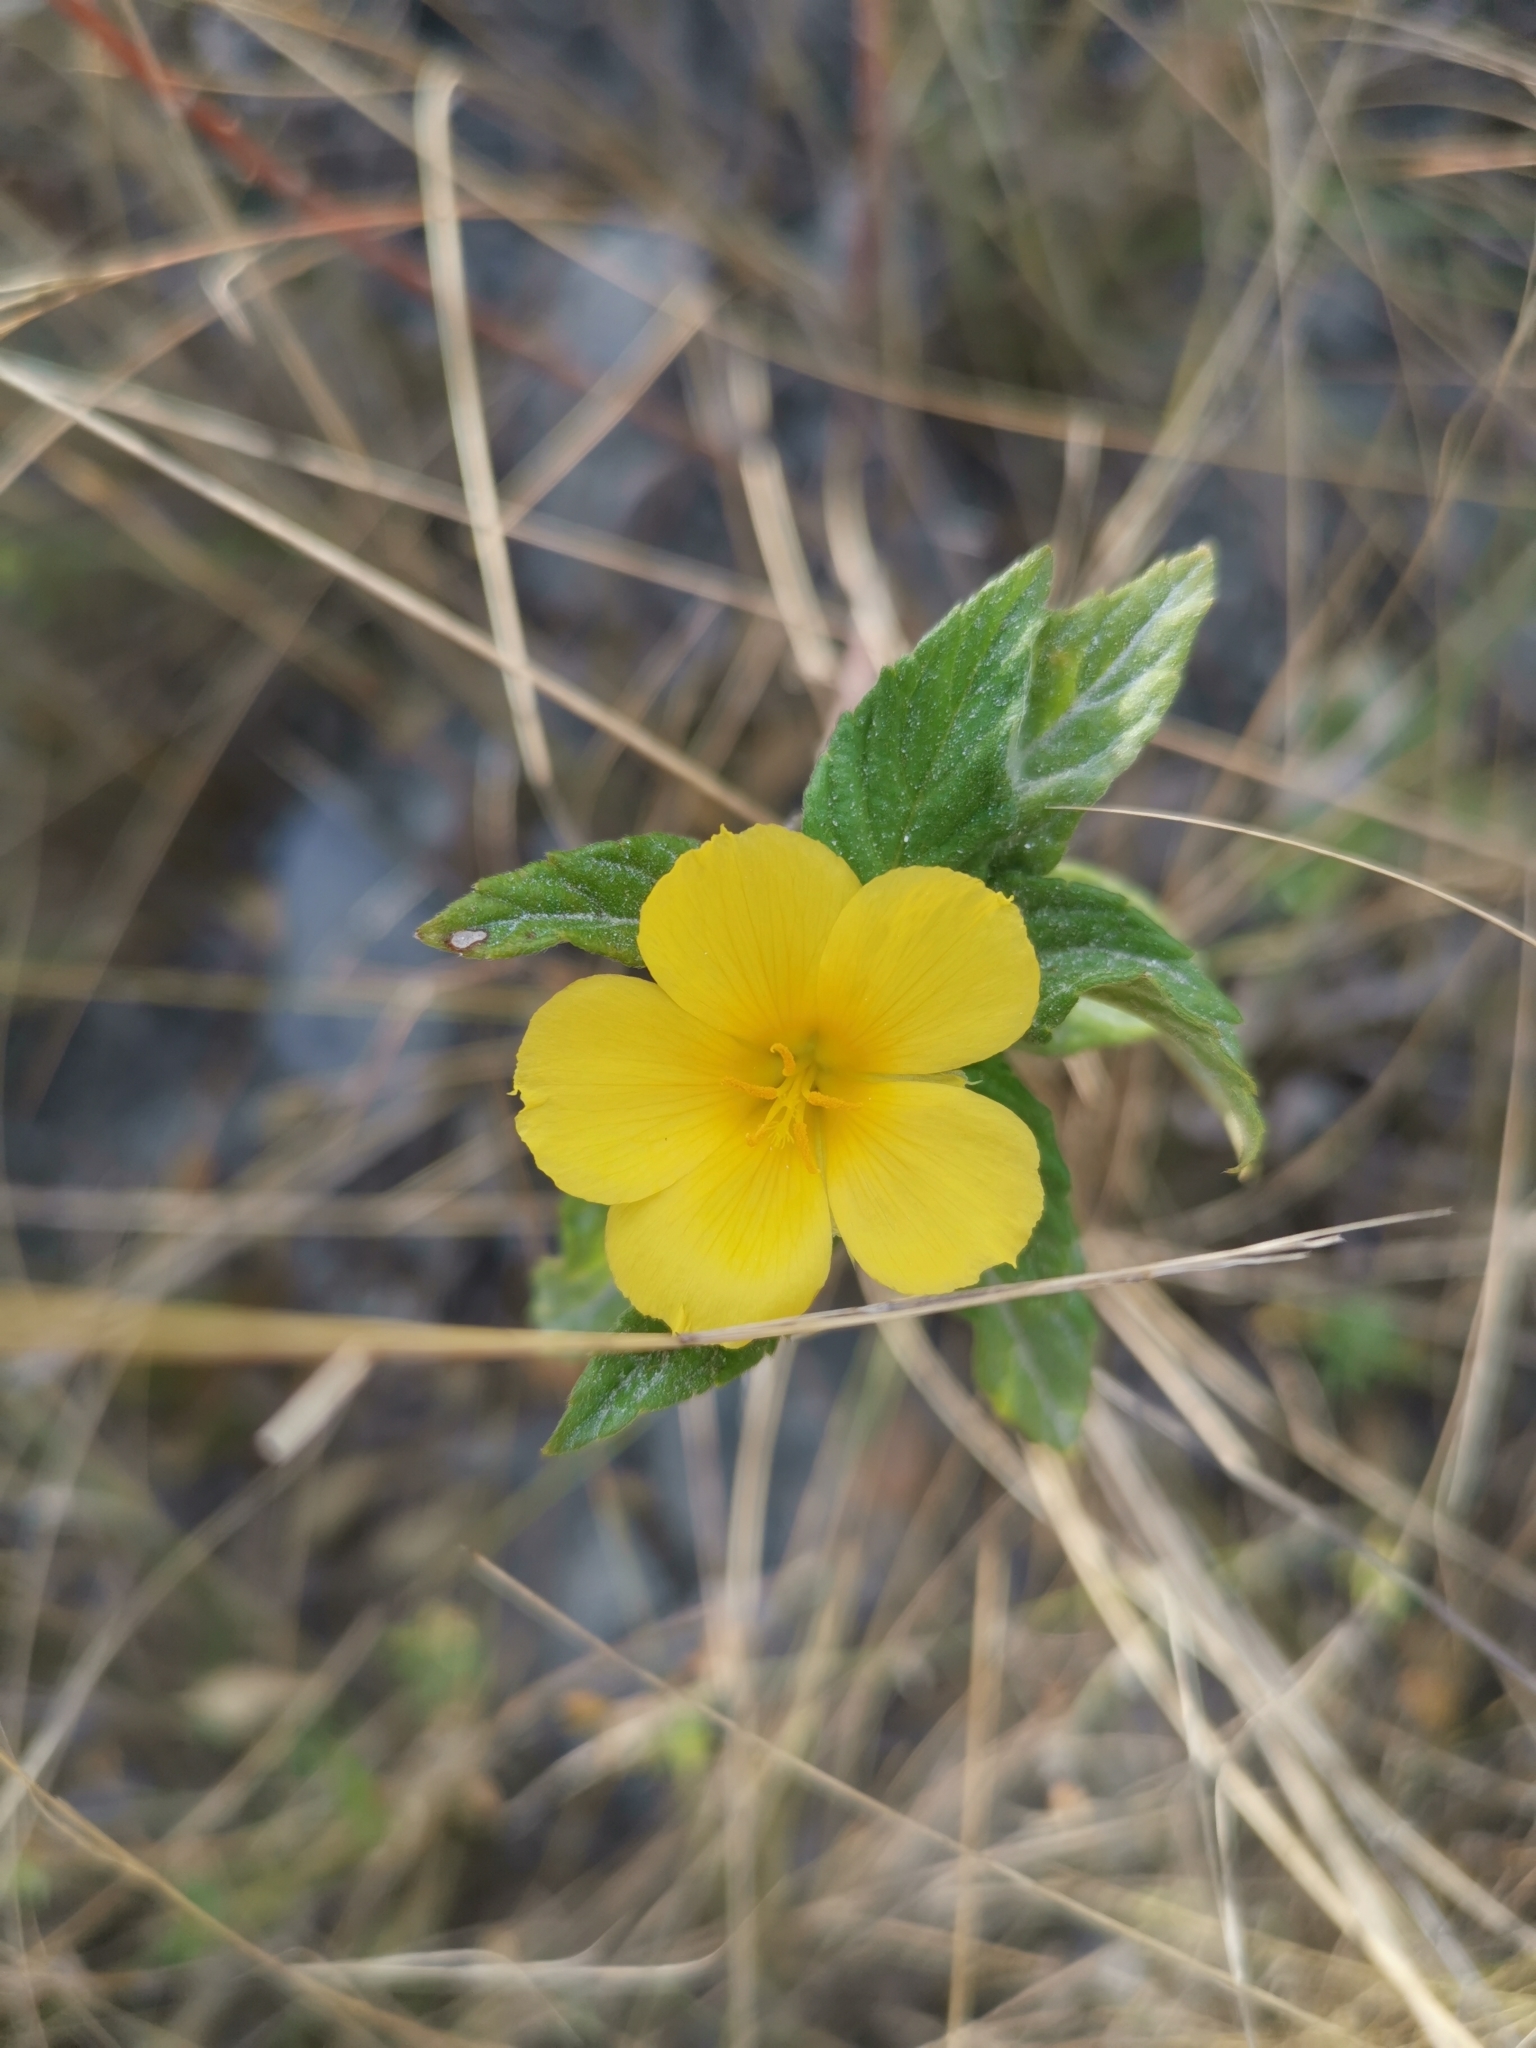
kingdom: Plantae
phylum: Tracheophyta
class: Magnoliopsida
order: Malpighiales
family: Turneraceae
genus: Turnera
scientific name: Turnera ulmifolia
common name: Ramgoat dashalong
